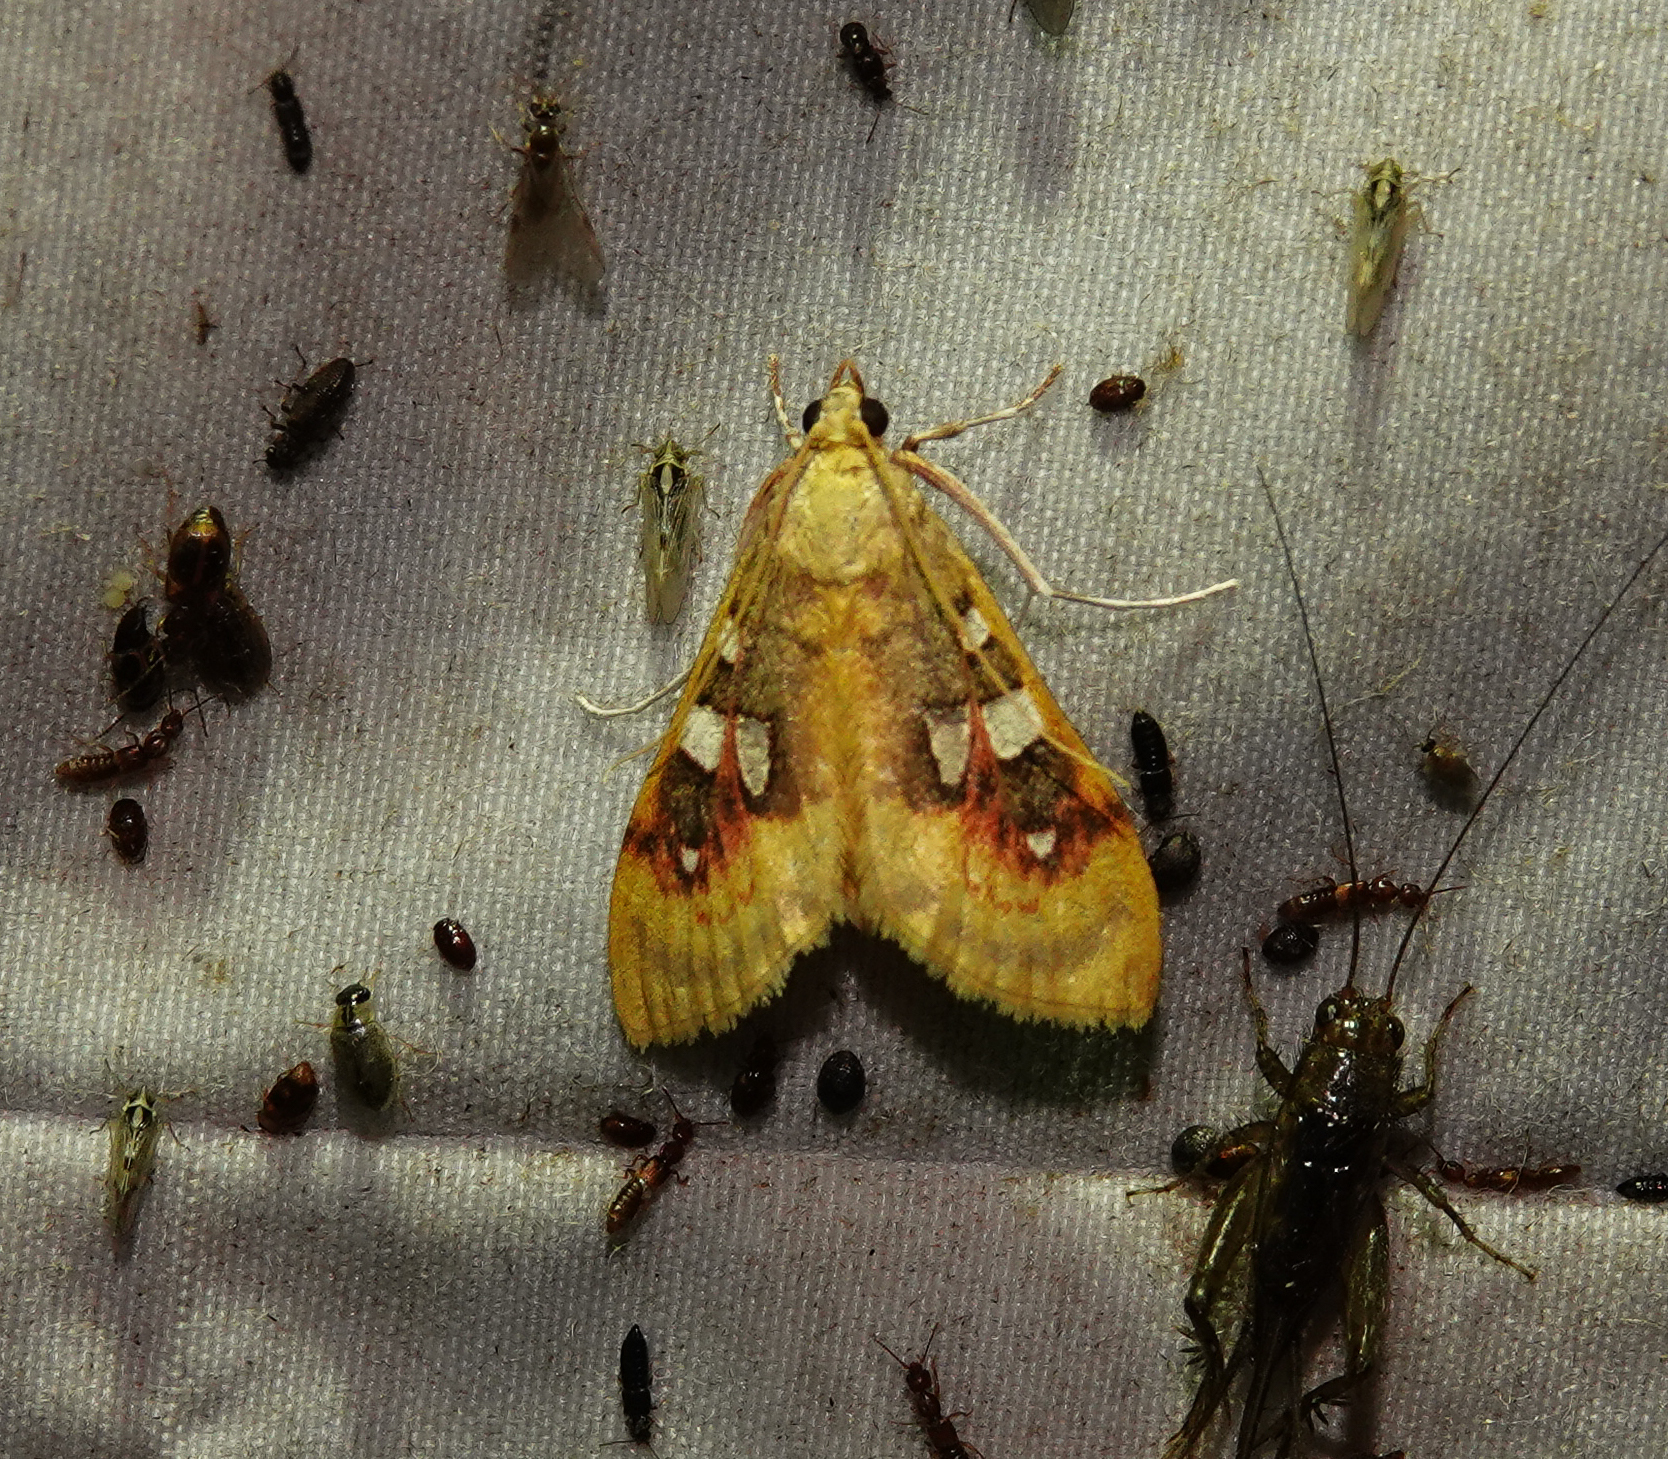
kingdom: Animalia
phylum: Arthropoda
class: Insecta
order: Lepidoptera
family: Crambidae
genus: Sameodes
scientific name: Sameodes
